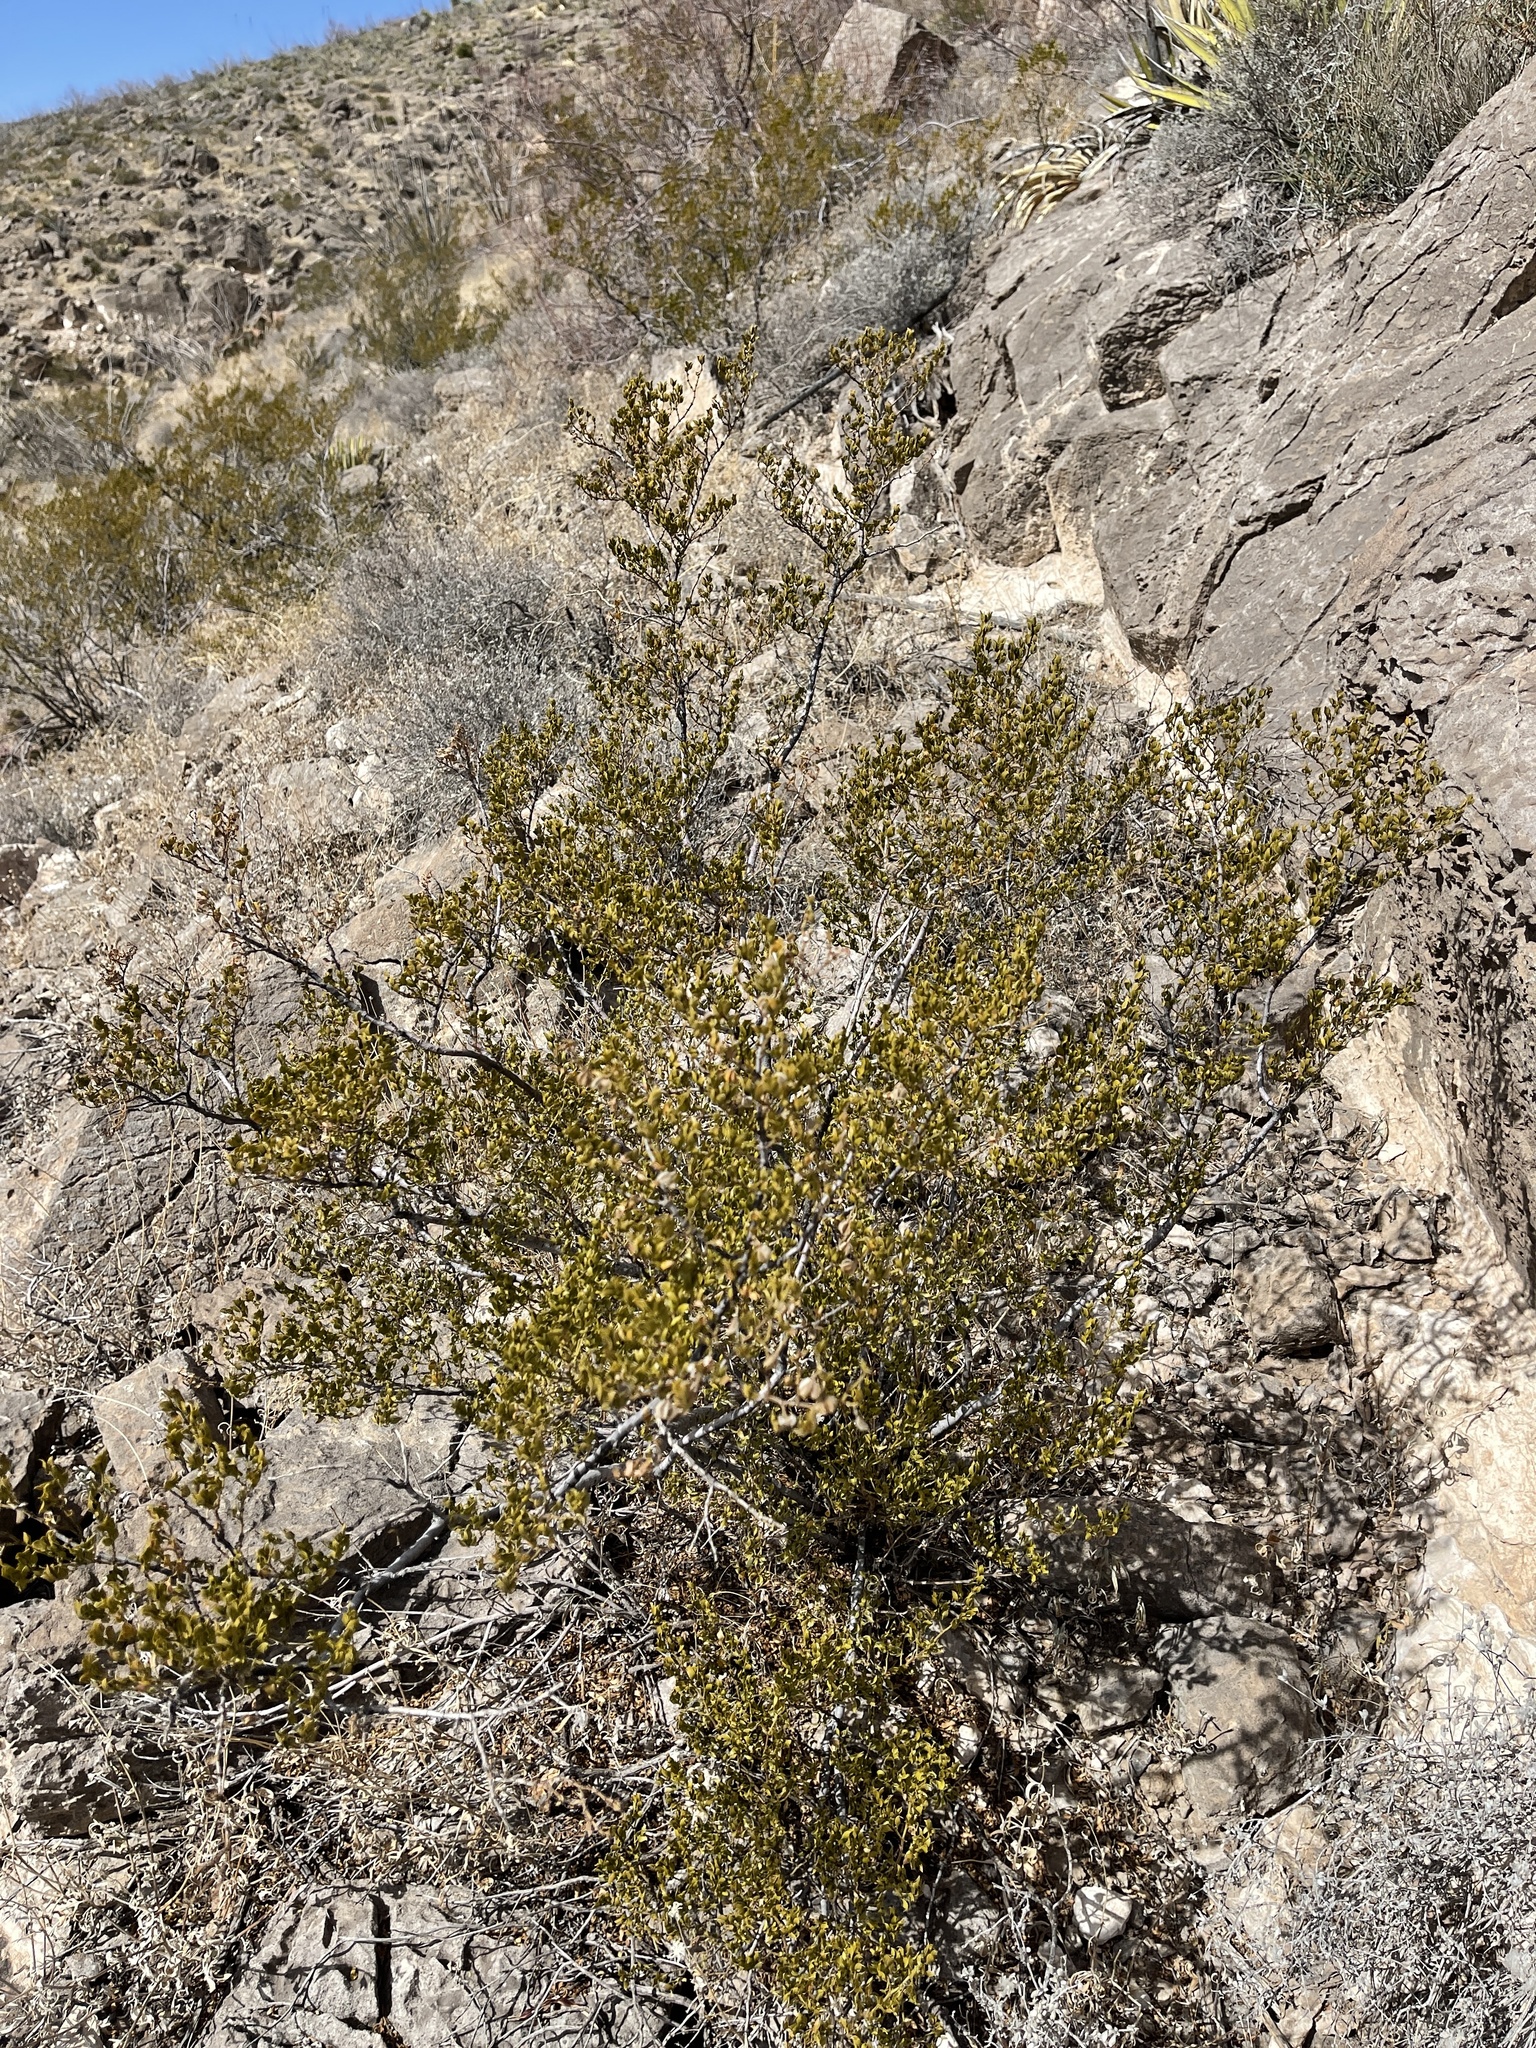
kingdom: Plantae
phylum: Tracheophyta
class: Magnoliopsida
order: Zygophyllales
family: Zygophyllaceae
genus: Larrea
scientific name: Larrea tridentata
